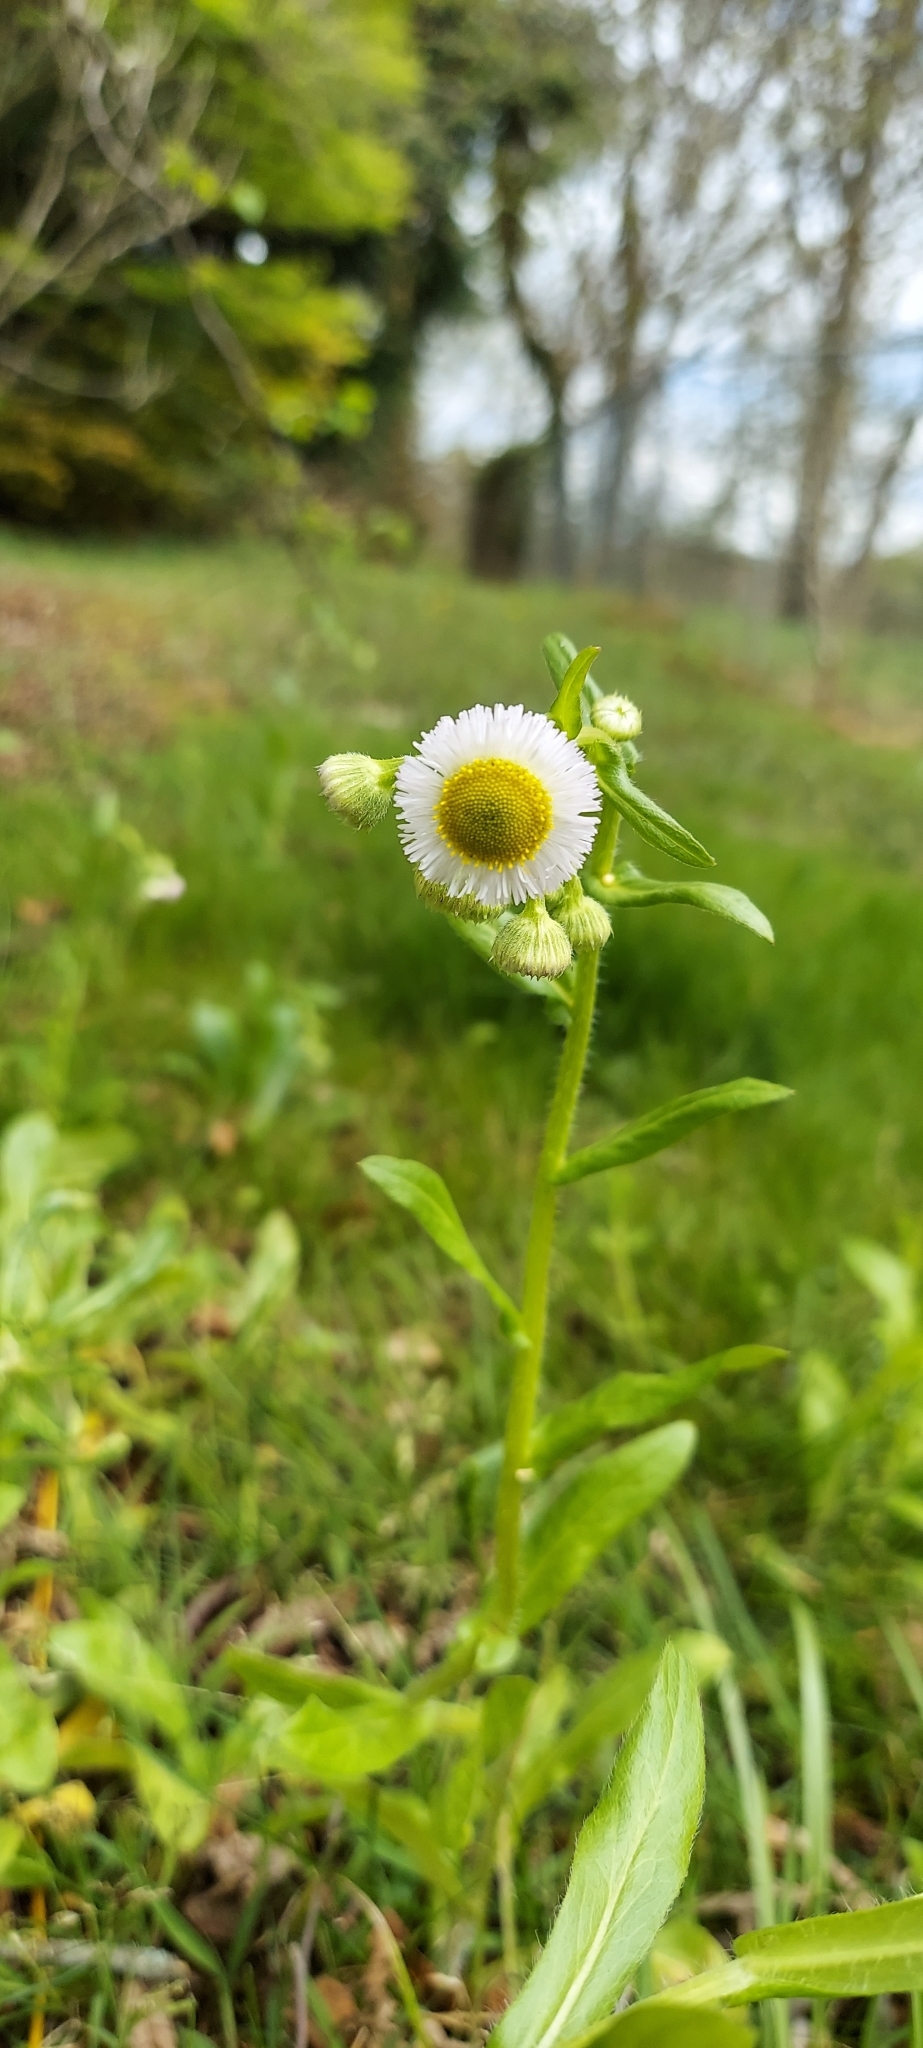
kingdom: Plantae
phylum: Tracheophyta
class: Magnoliopsida
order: Asterales
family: Asteraceae
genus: Erigeron
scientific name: Erigeron philadelphicus
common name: Robin's-plantain
